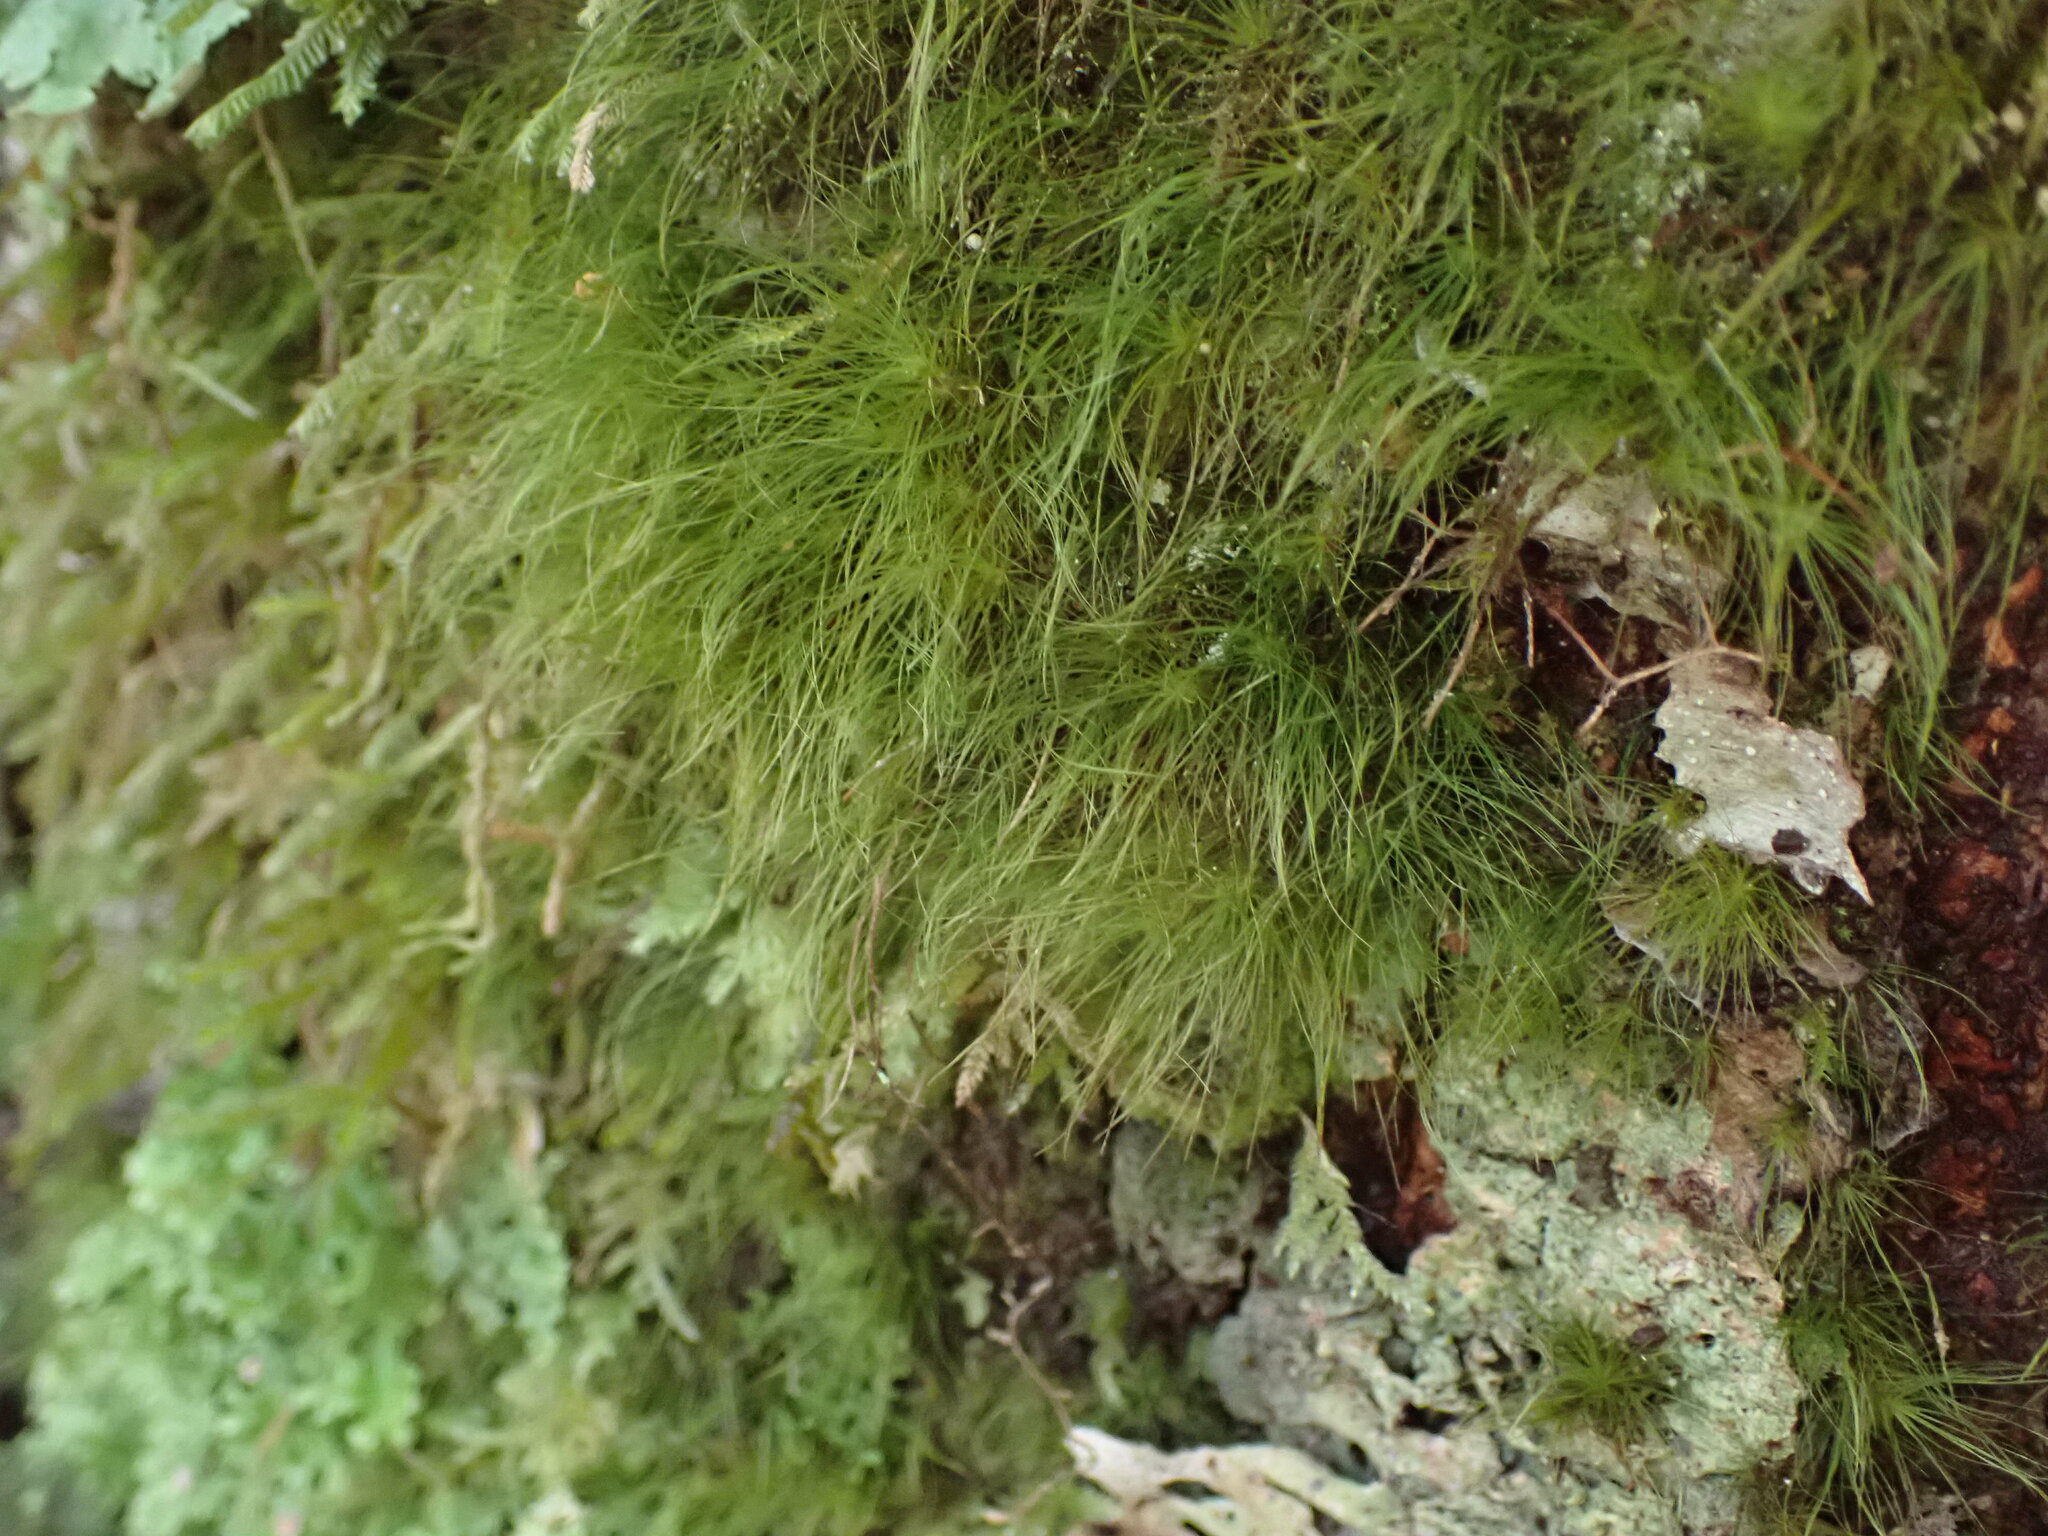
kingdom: Plantae
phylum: Bryophyta
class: Bryopsida
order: Dicranales
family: Dicranaceae
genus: Dicranoloma
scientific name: Dicranoloma menziesii
